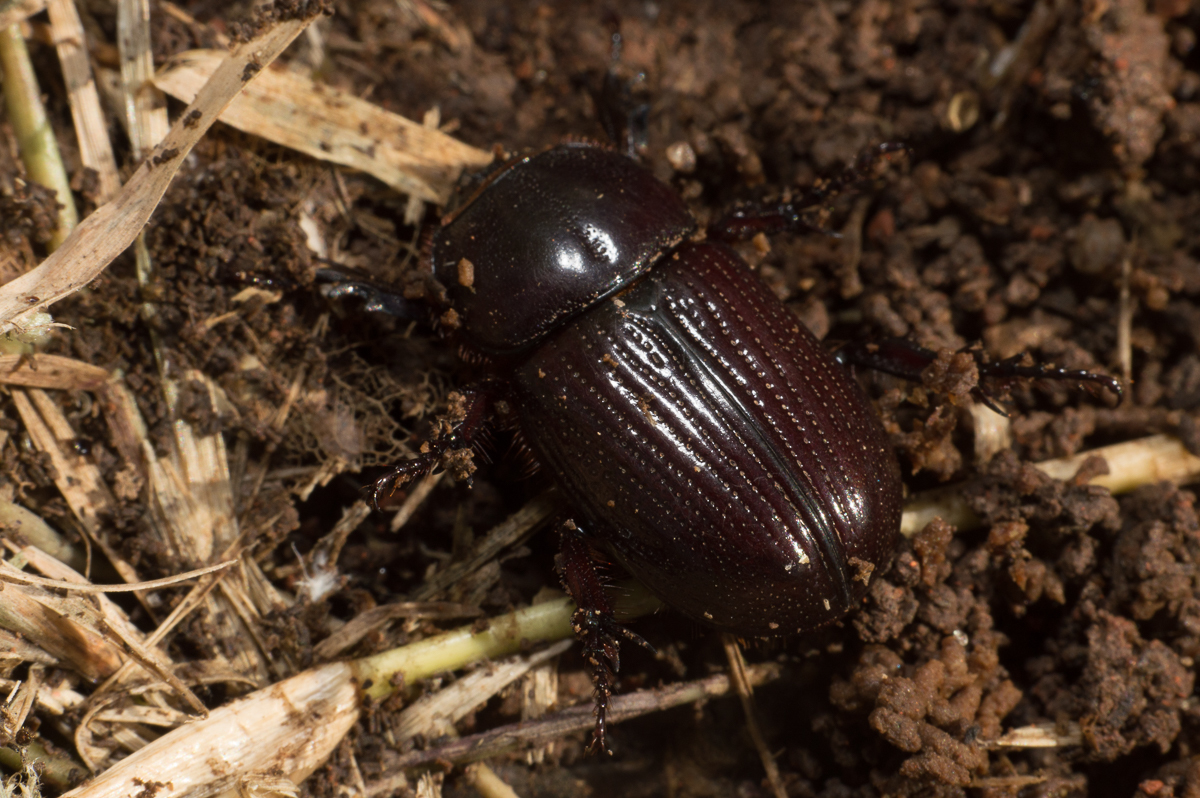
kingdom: Animalia
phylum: Arthropoda
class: Insecta
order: Coleoptera
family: Scarabaeidae
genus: Archophileurus
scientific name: Archophileurus
